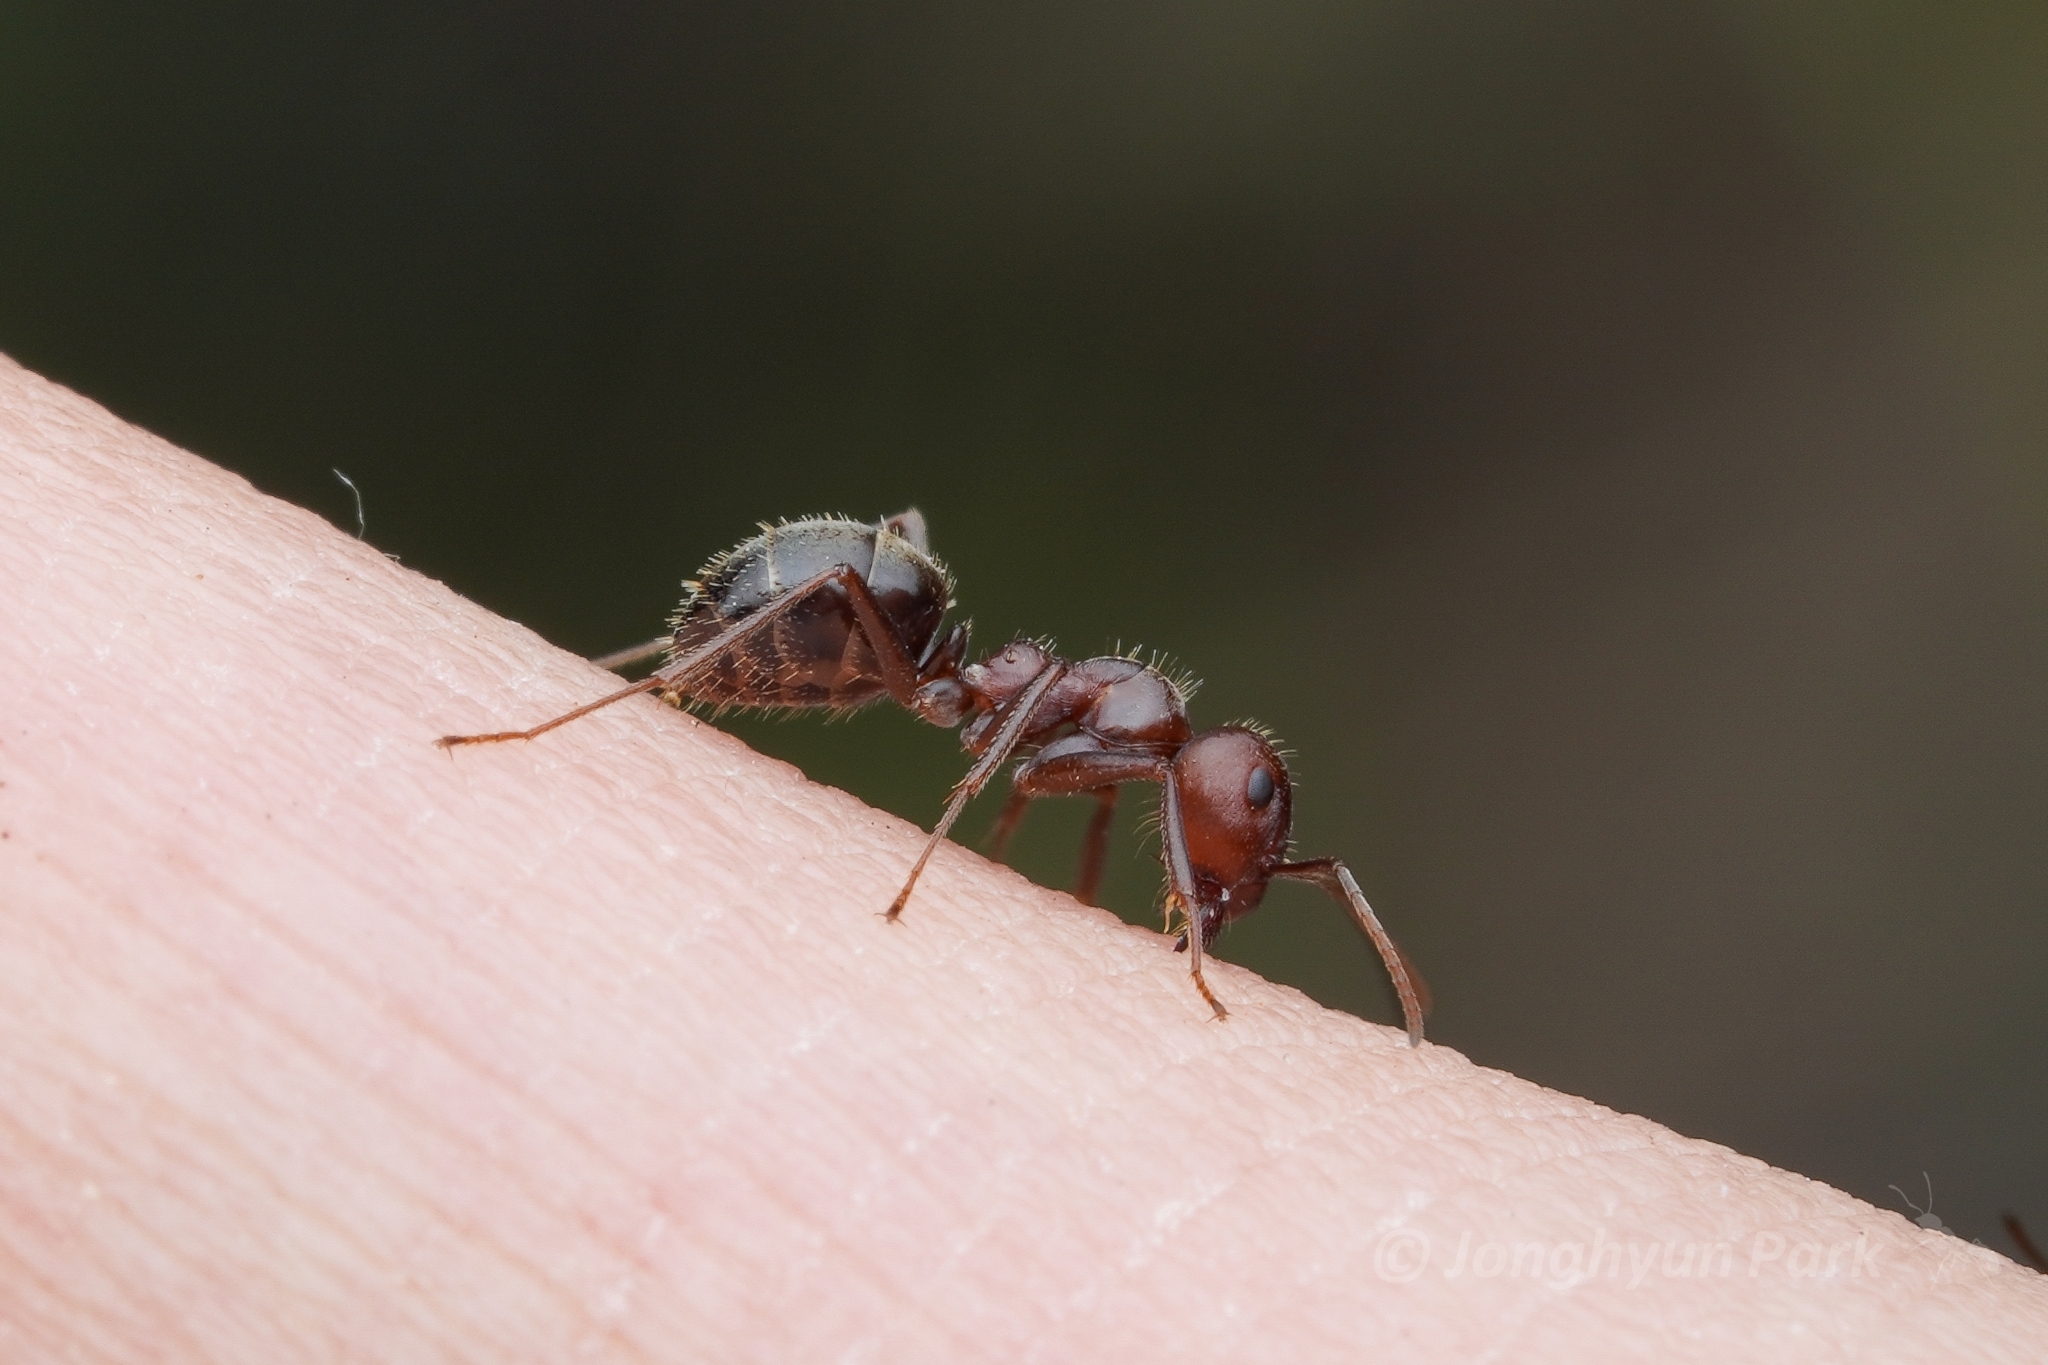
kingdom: Animalia
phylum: Arthropoda
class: Insecta
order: Hymenoptera
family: Formicidae
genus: Anoplolepis
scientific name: Anoplolepis steingroeveri
